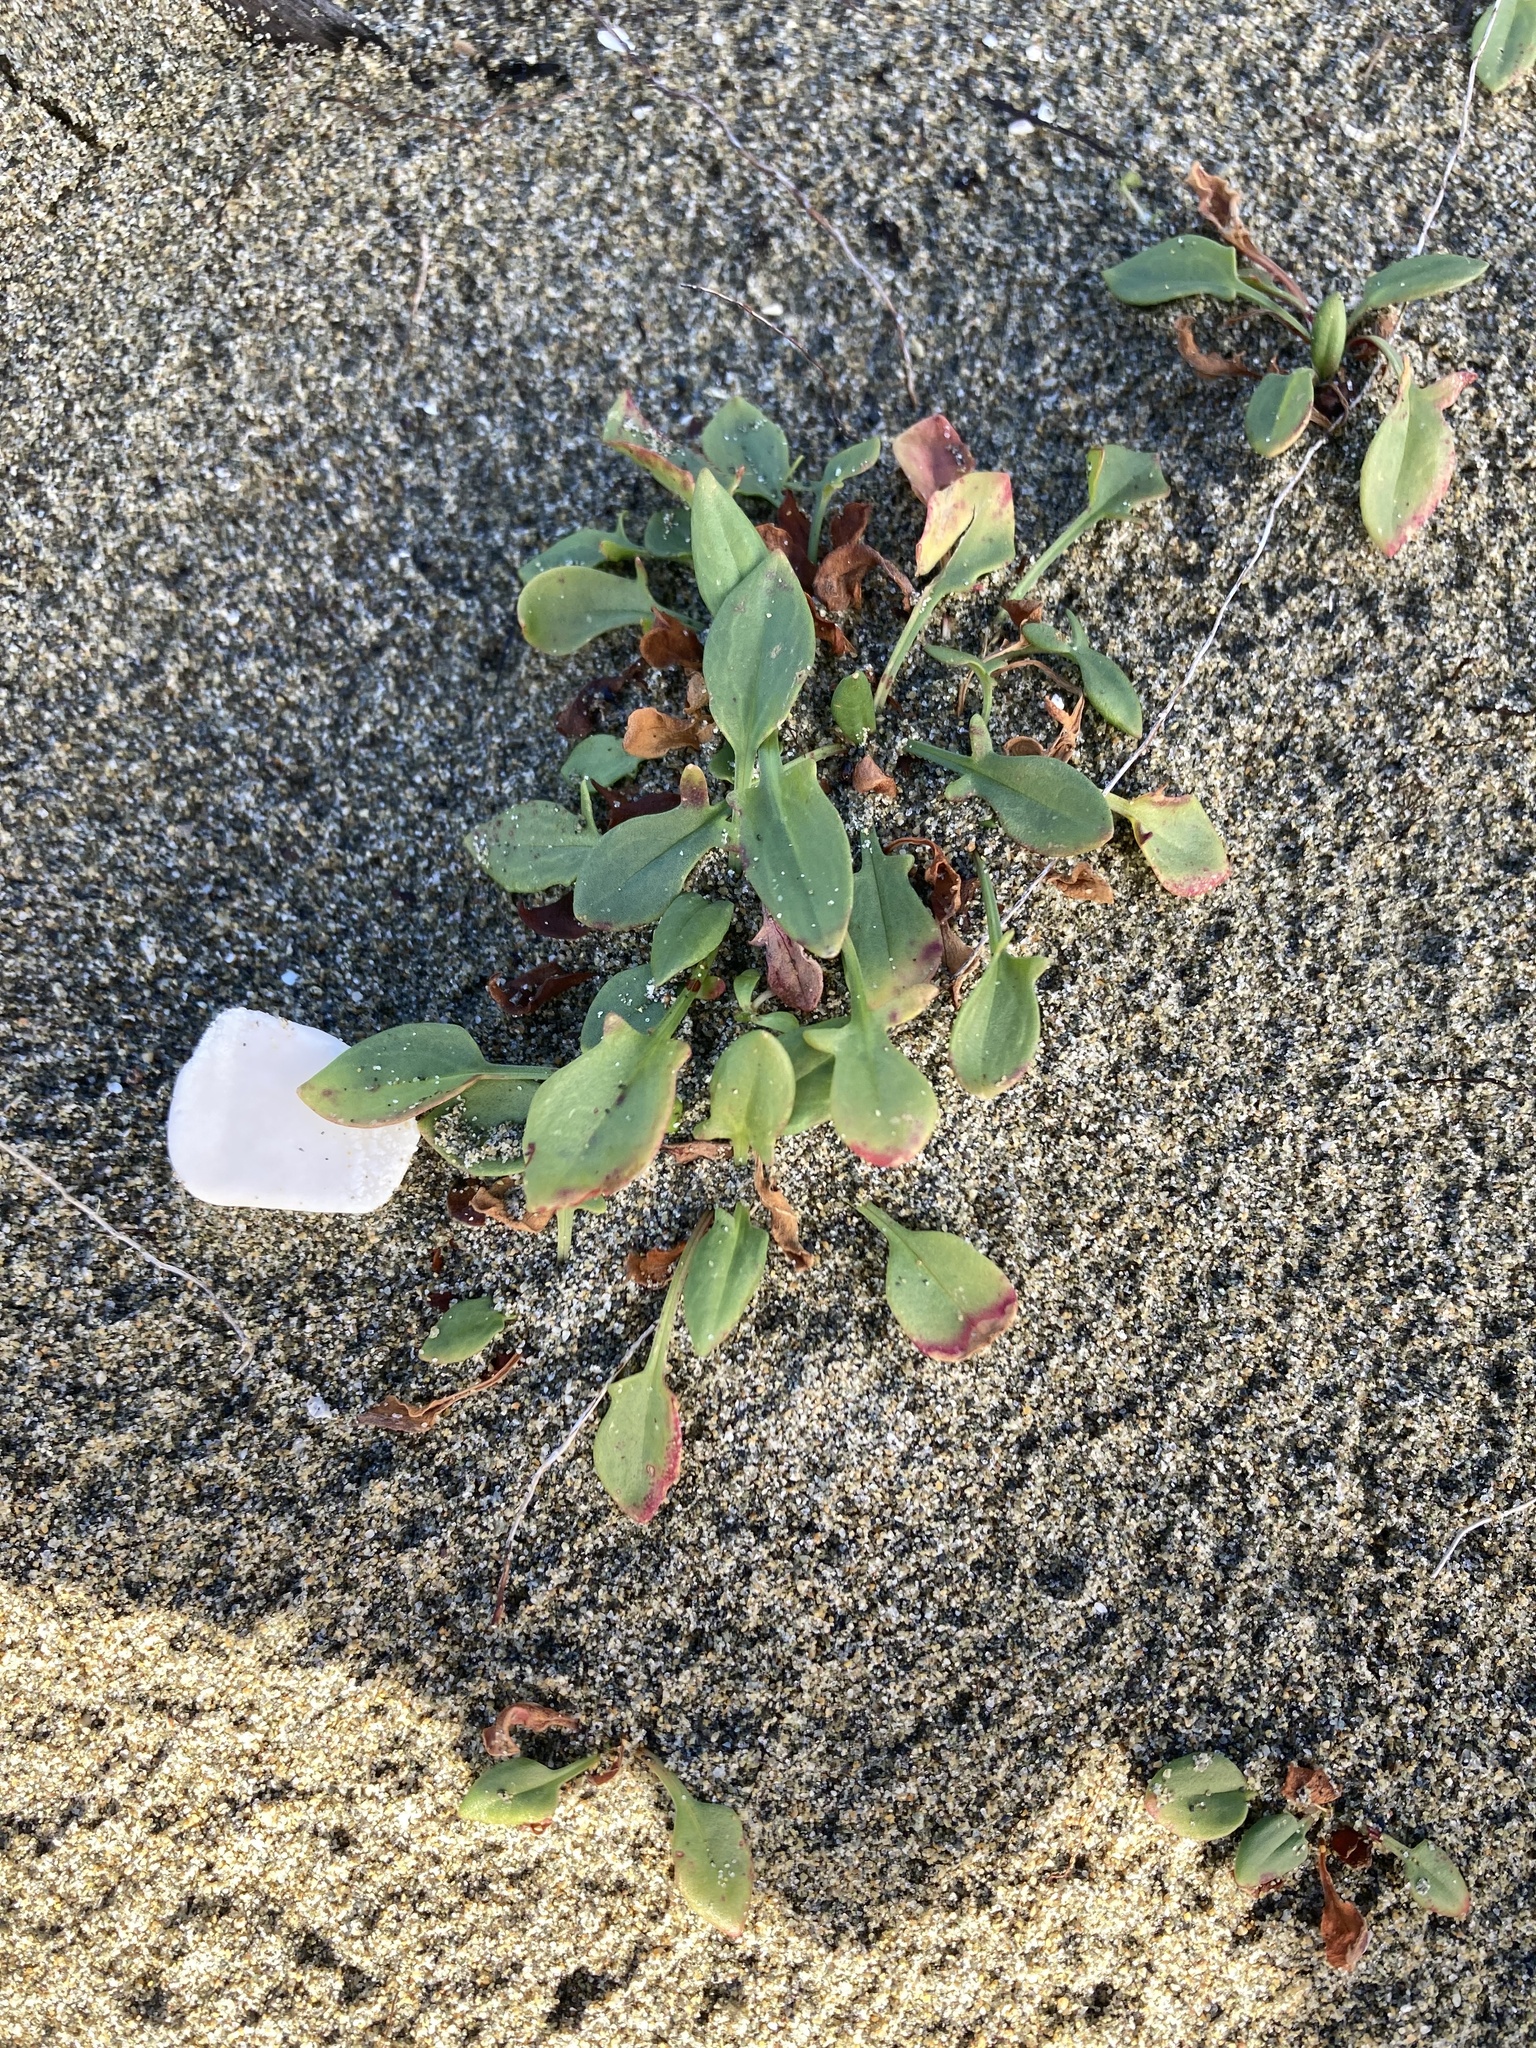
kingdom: Plantae
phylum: Tracheophyta
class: Magnoliopsida
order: Caryophyllales
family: Polygonaceae
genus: Rumex
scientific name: Rumex acetosella
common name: Common sheep sorrel
